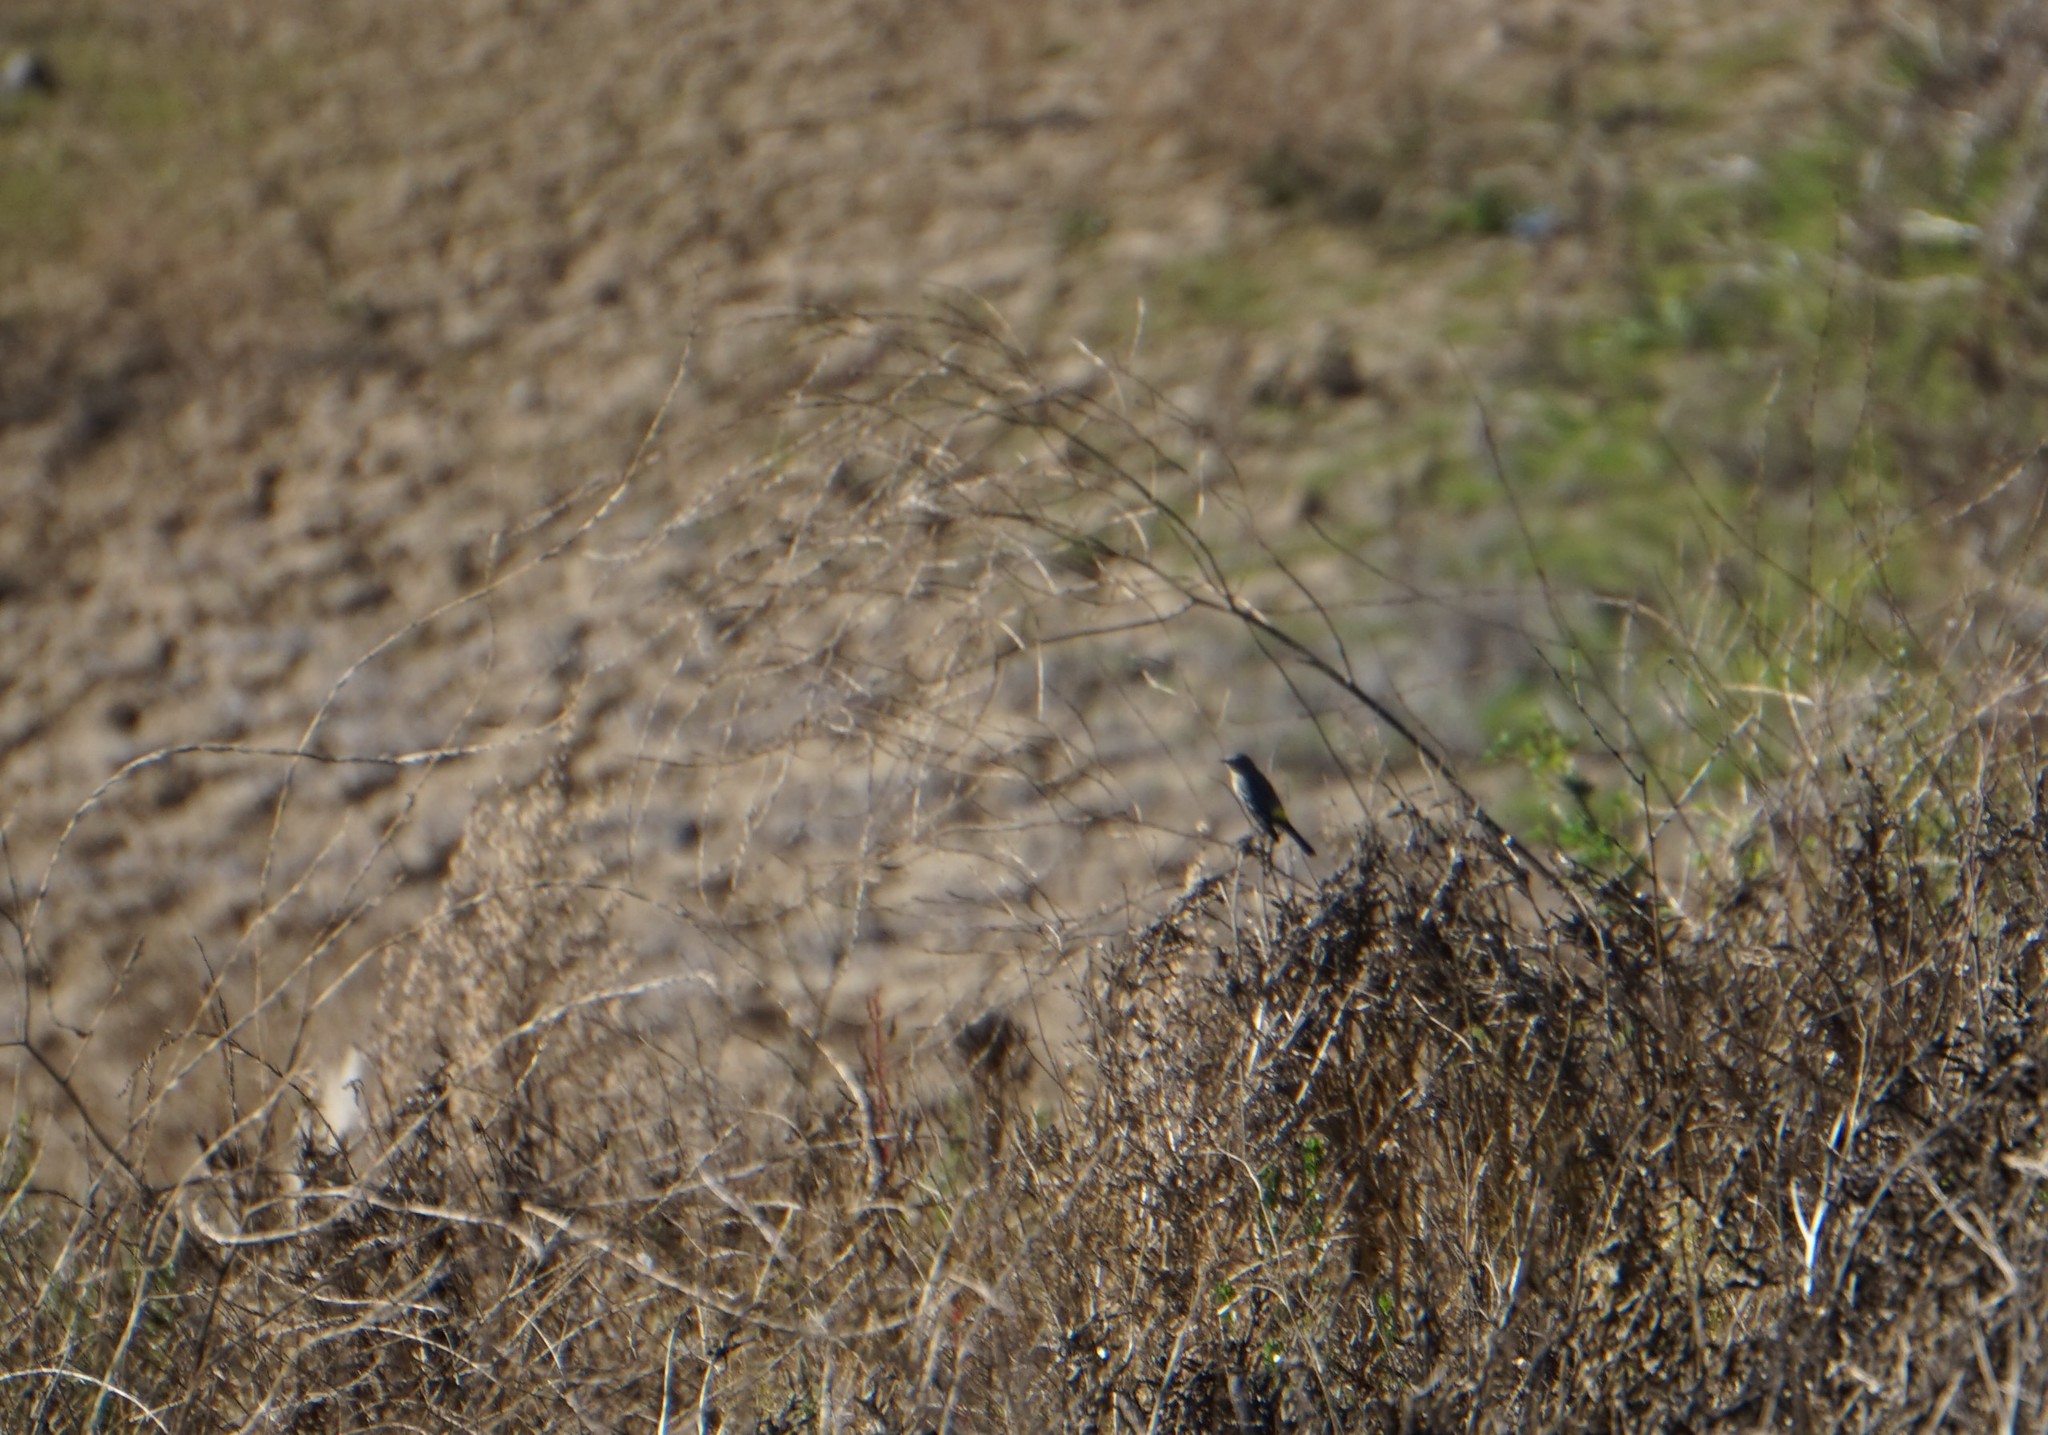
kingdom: Animalia
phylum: Chordata
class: Aves
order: Passeriformes
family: Parulidae
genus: Setophaga
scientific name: Setophaga coronata
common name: Myrtle warbler
